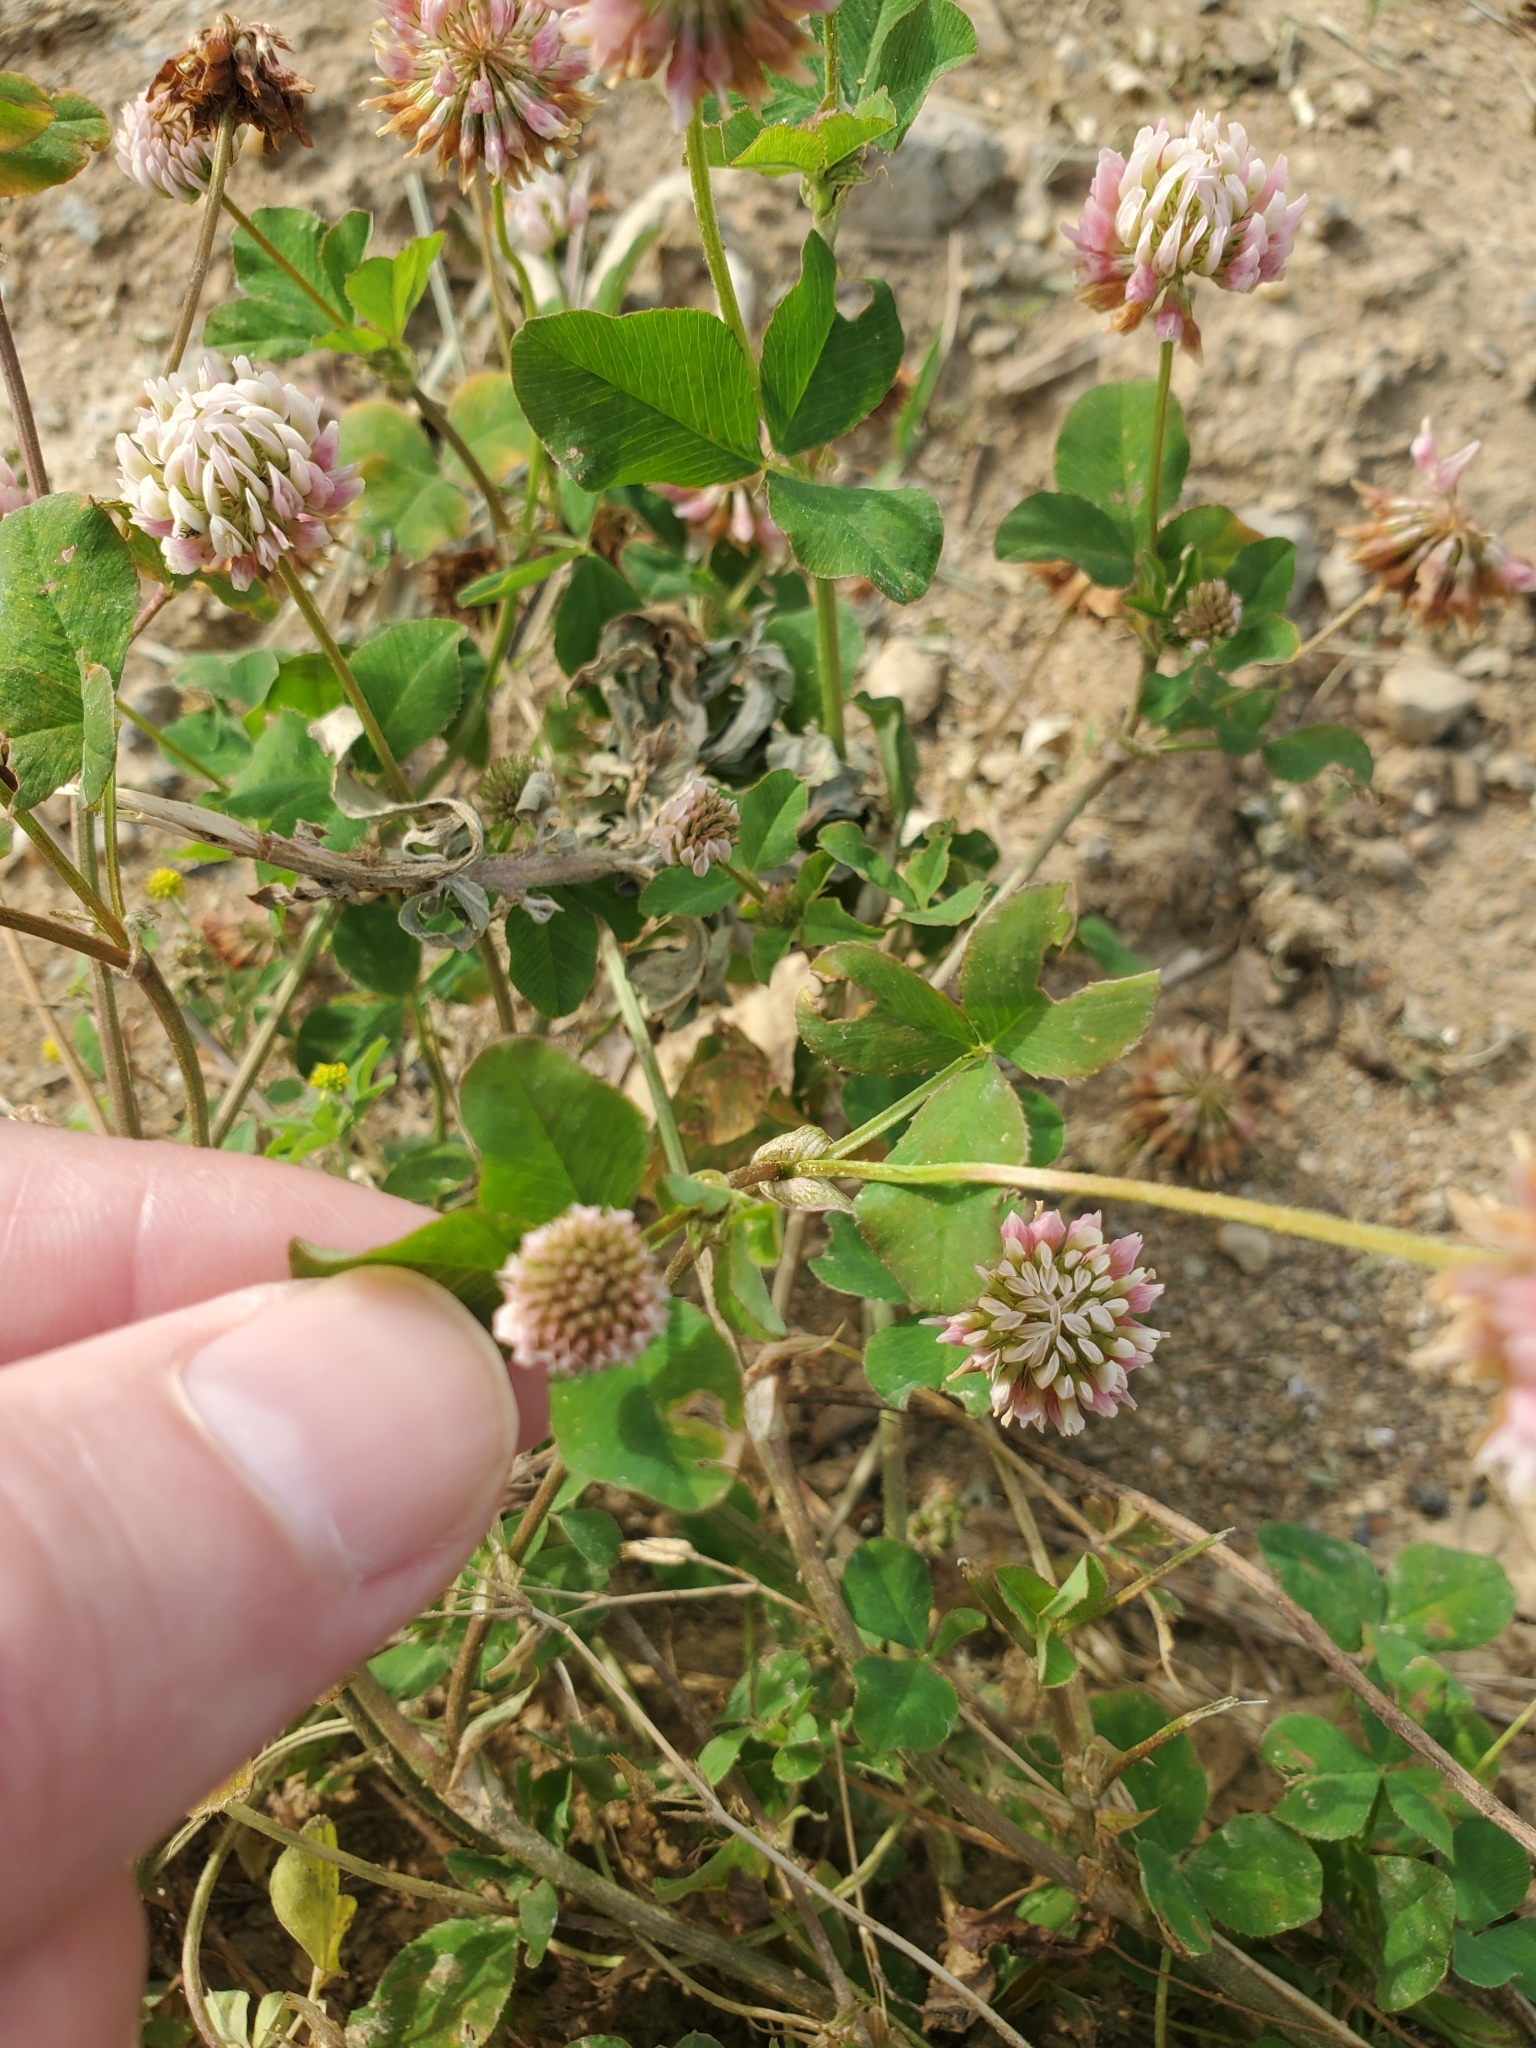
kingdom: Plantae
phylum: Tracheophyta
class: Magnoliopsida
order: Fabales
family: Fabaceae
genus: Trifolium
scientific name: Trifolium hybridum
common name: Alsike clover
